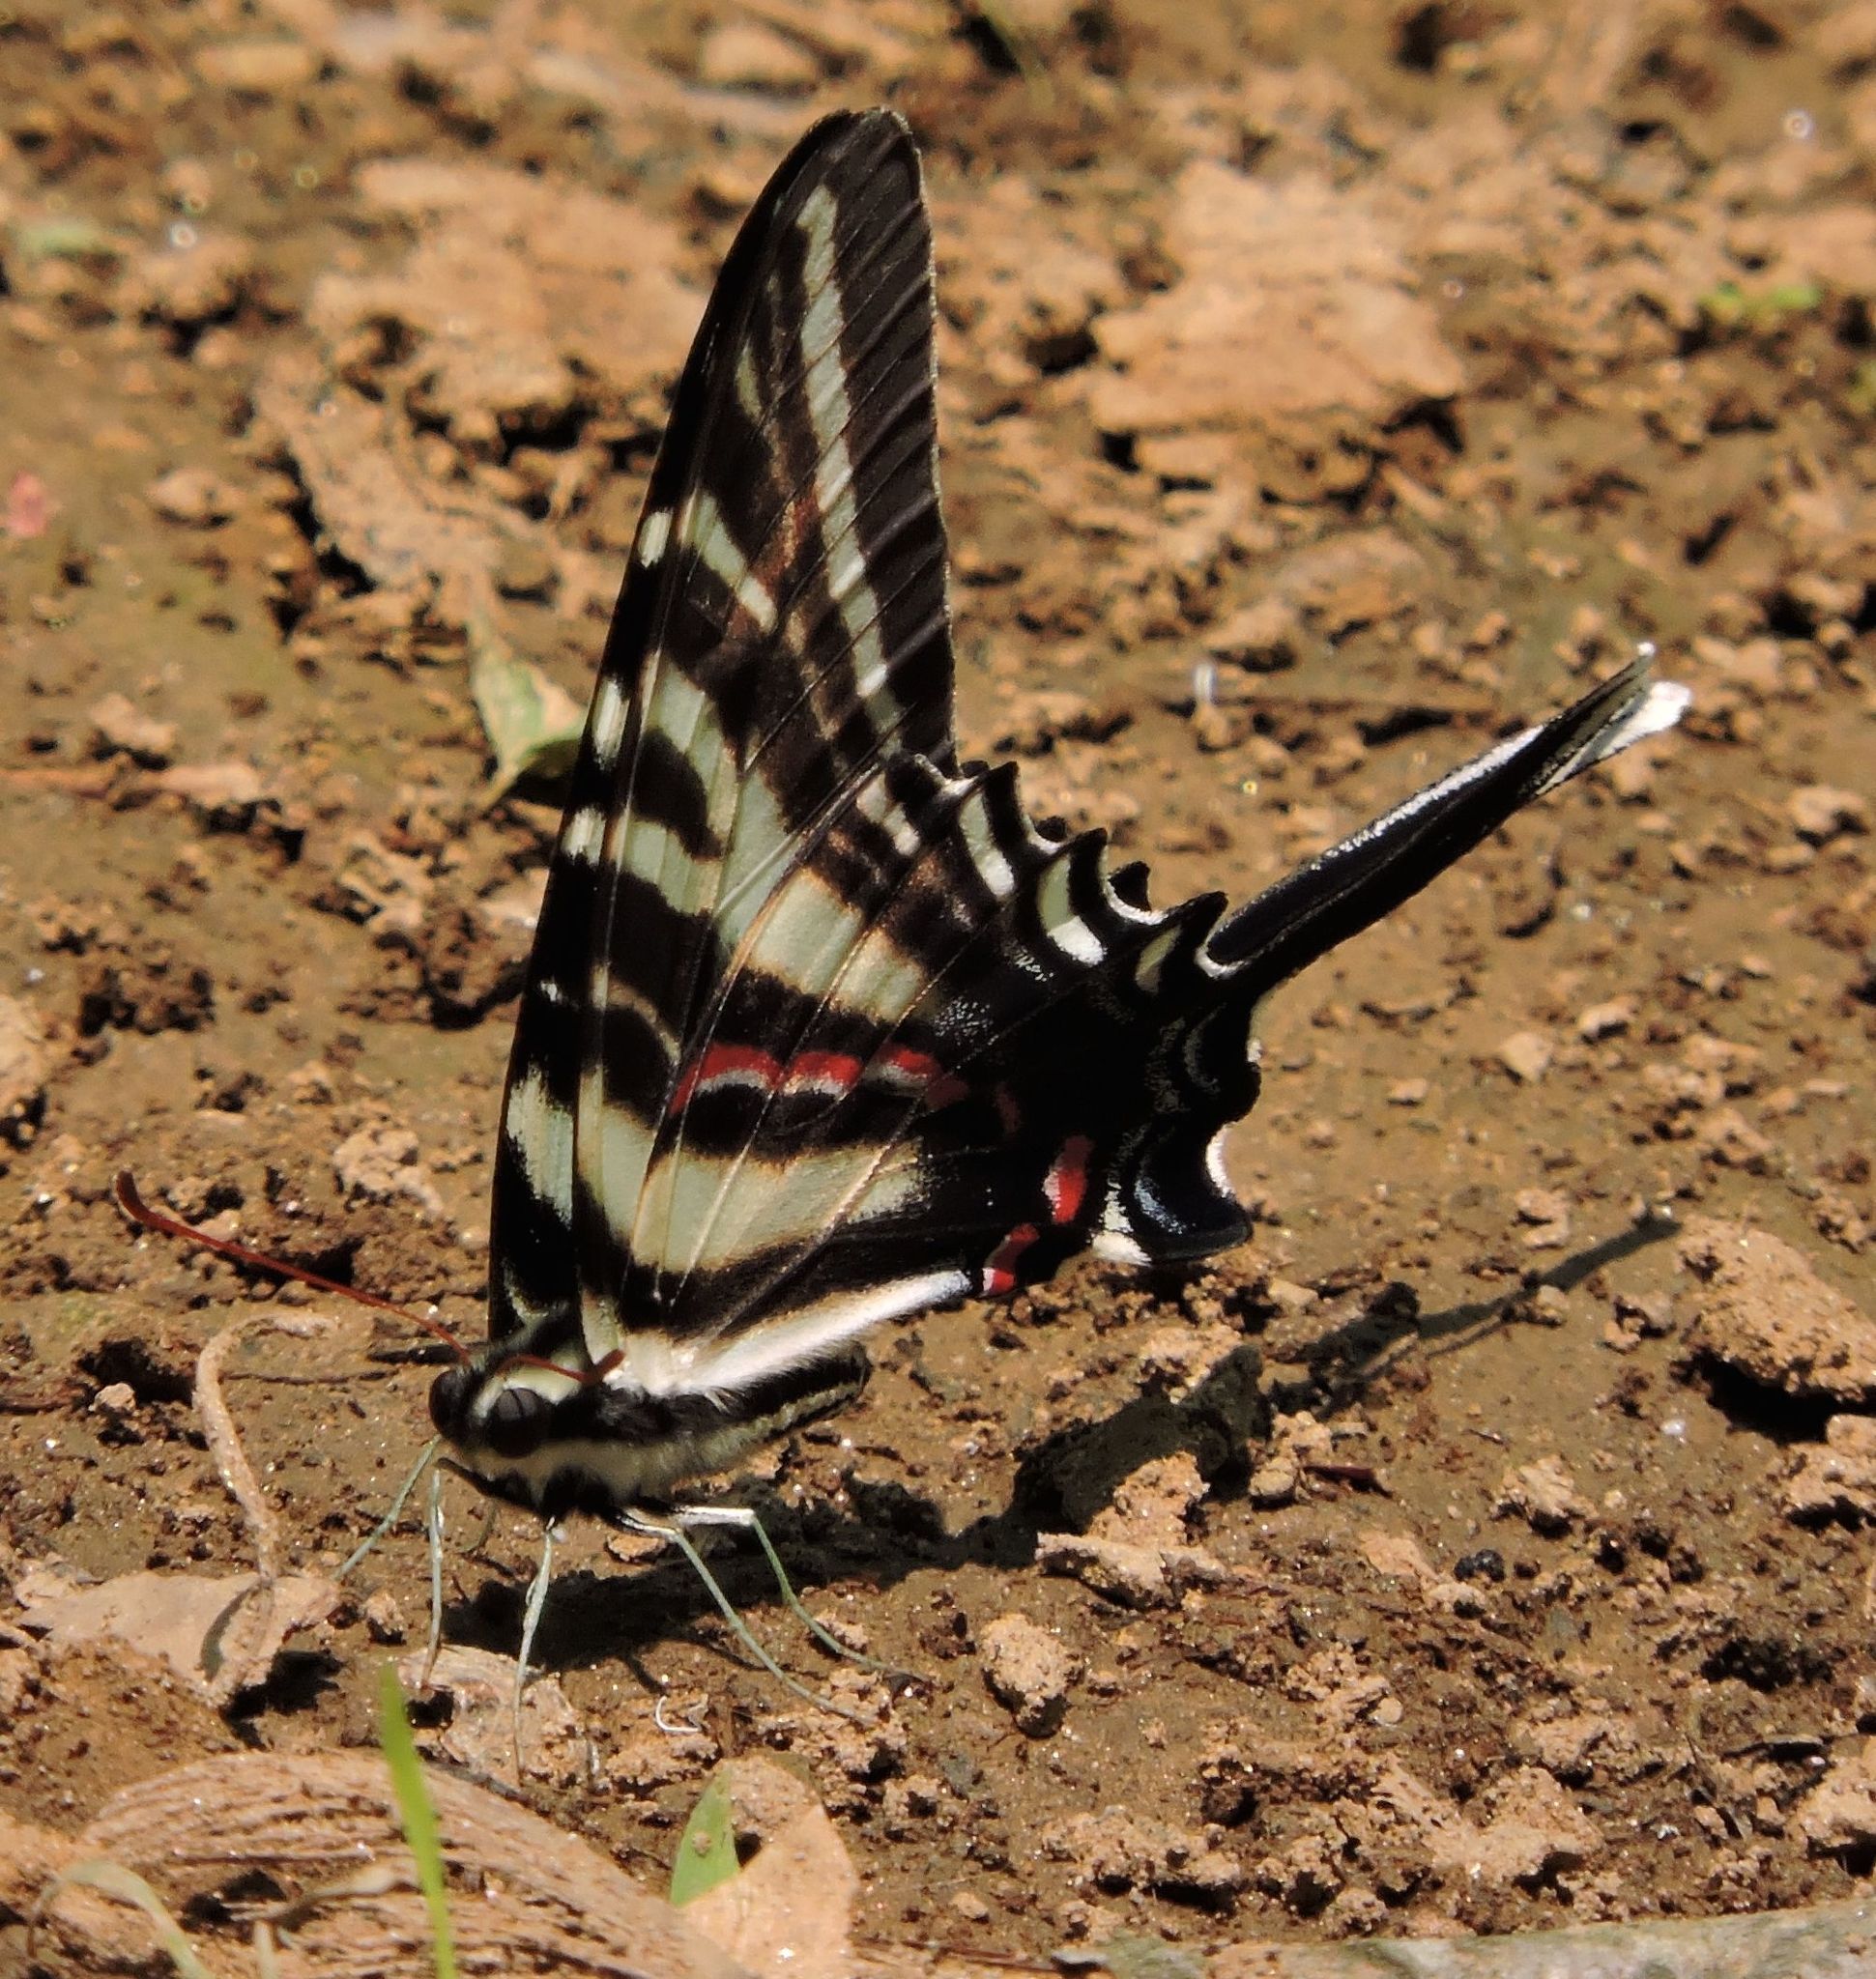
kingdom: Animalia
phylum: Arthropoda
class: Insecta
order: Lepidoptera
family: Papilionidae
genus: Protographium
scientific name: Protographium marcellus
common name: Zebra swallowtail
